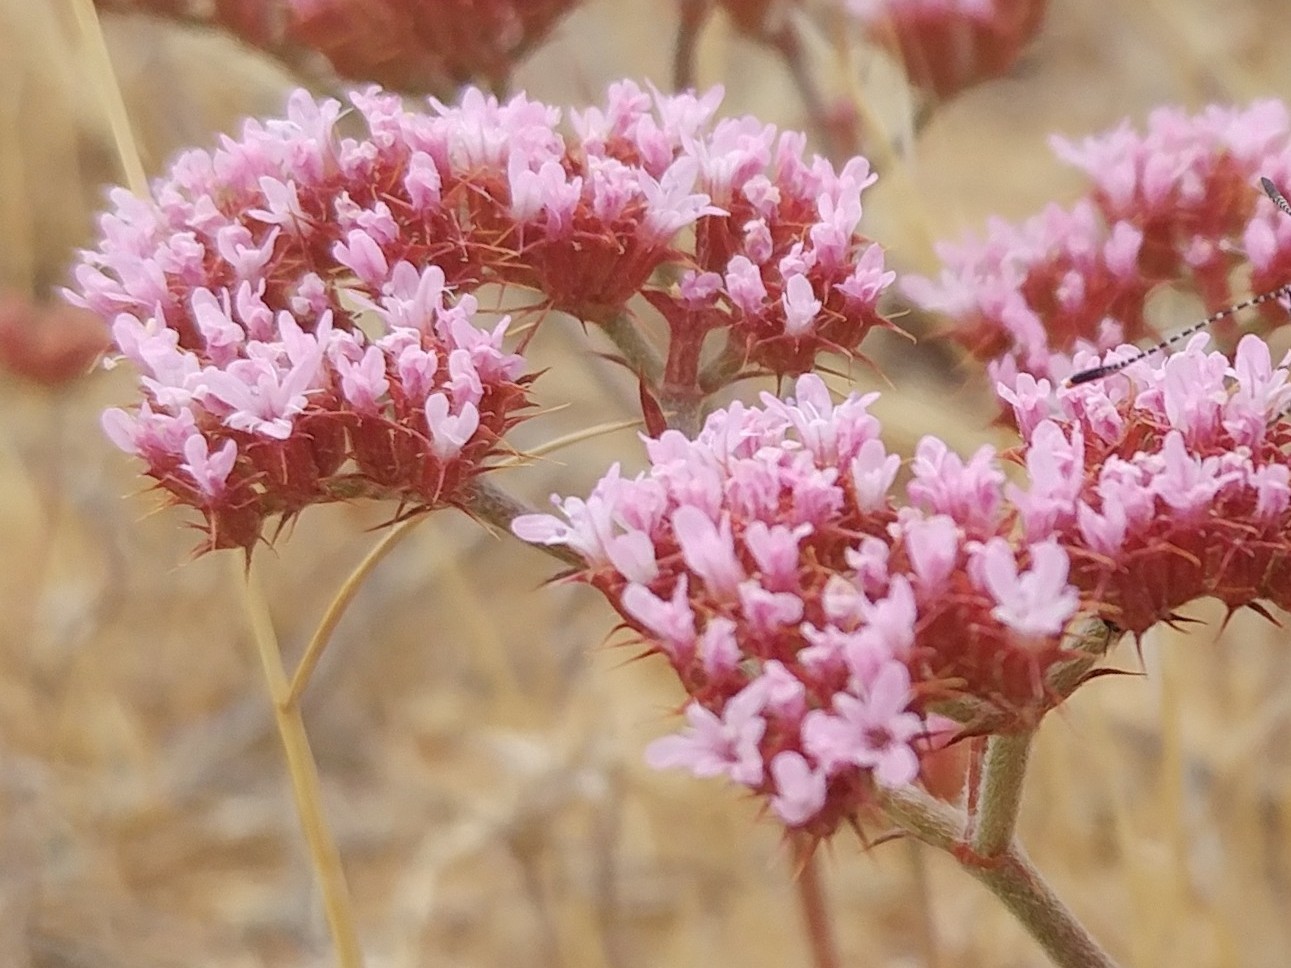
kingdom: Plantae
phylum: Tracheophyta
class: Magnoliopsida
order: Caryophyllales
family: Polygonaceae
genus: Chorizanthe
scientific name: Chorizanthe staticoides
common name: Turkish rugging
